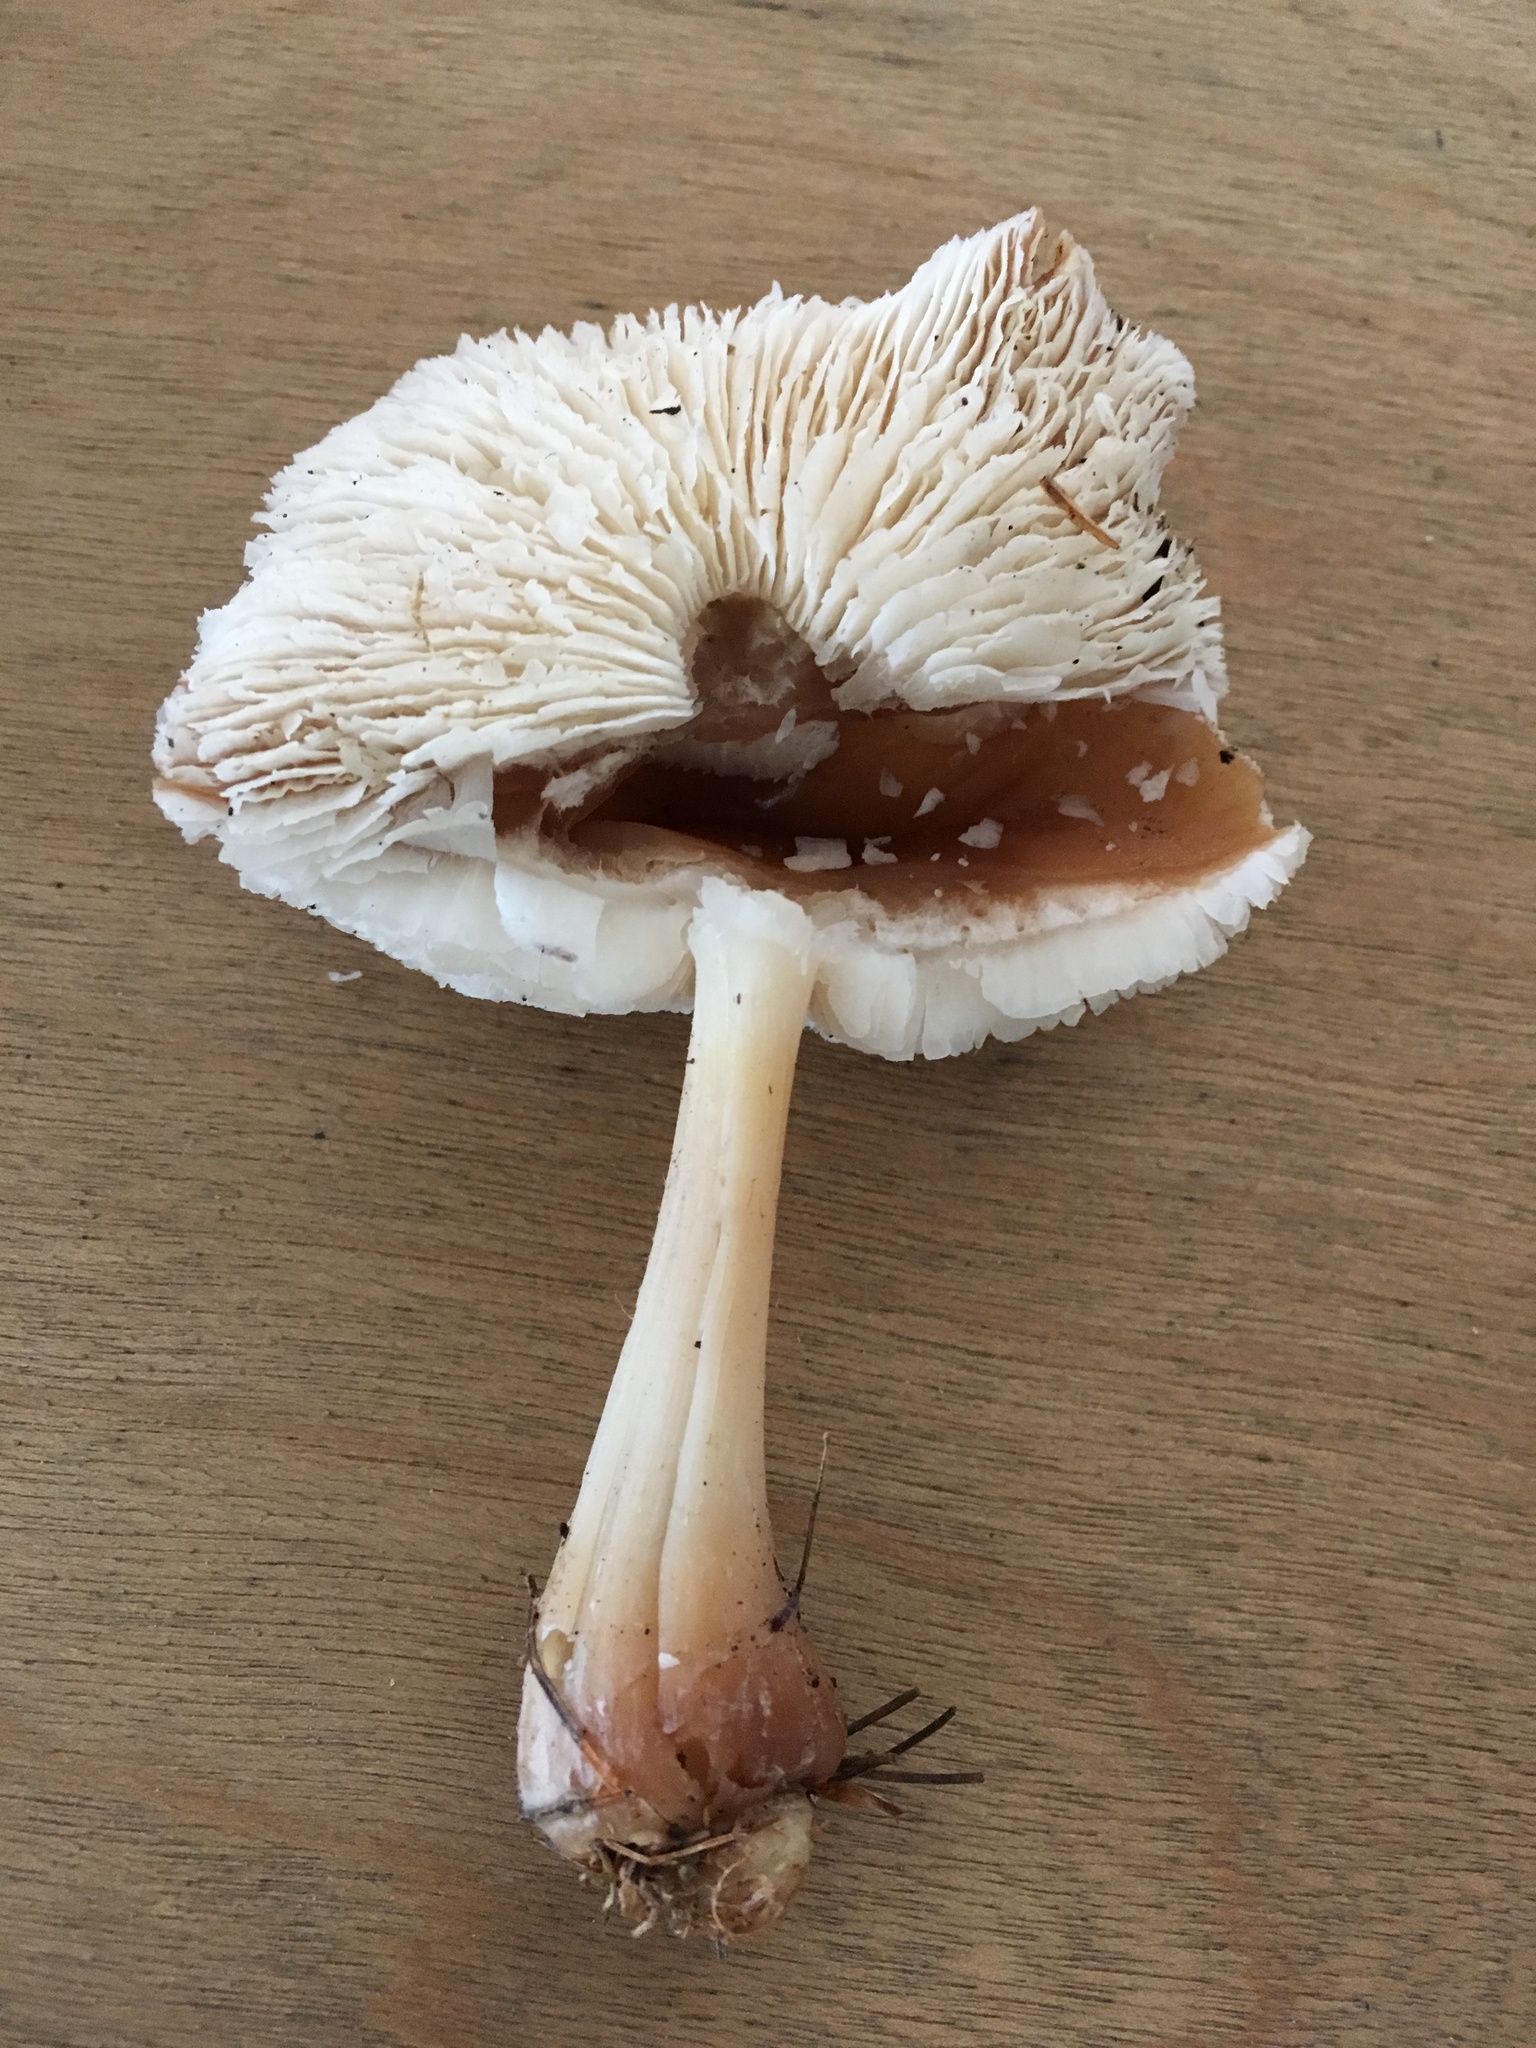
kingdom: Fungi
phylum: Basidiomycota
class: Agaricomycetes
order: Agaricales
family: Omphalotaceae
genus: Rhodocollybia
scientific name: Rhodocollybia butyracea
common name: Butter cap
